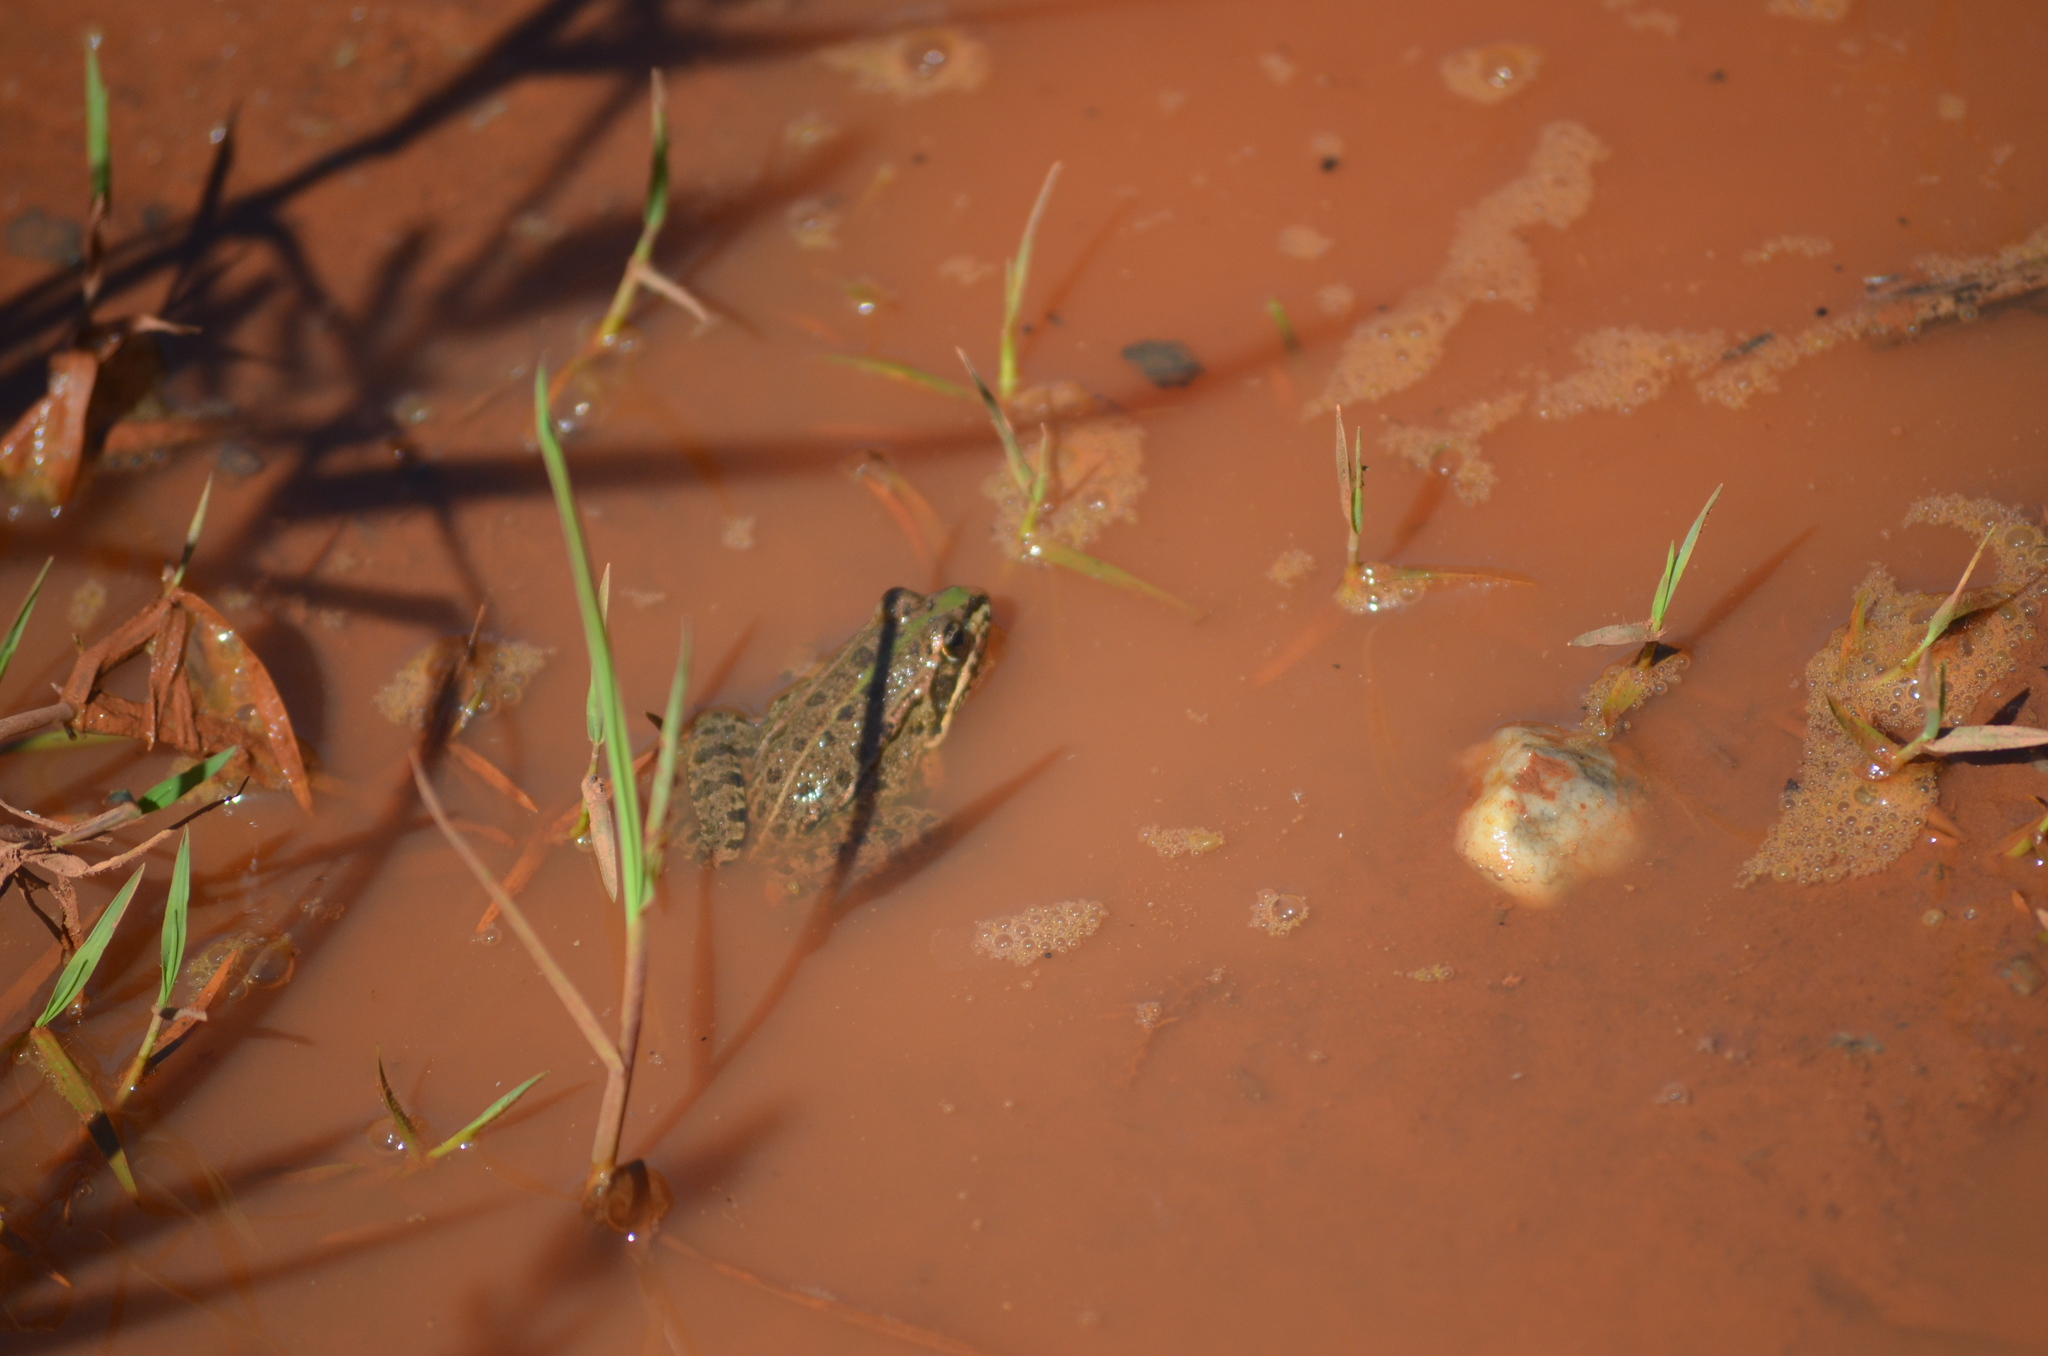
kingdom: Animalia
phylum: Chordata
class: Amphibia
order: Anura
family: Ranidae
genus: Pelophylax
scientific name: Pelophylax perezi
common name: Perez's frog
